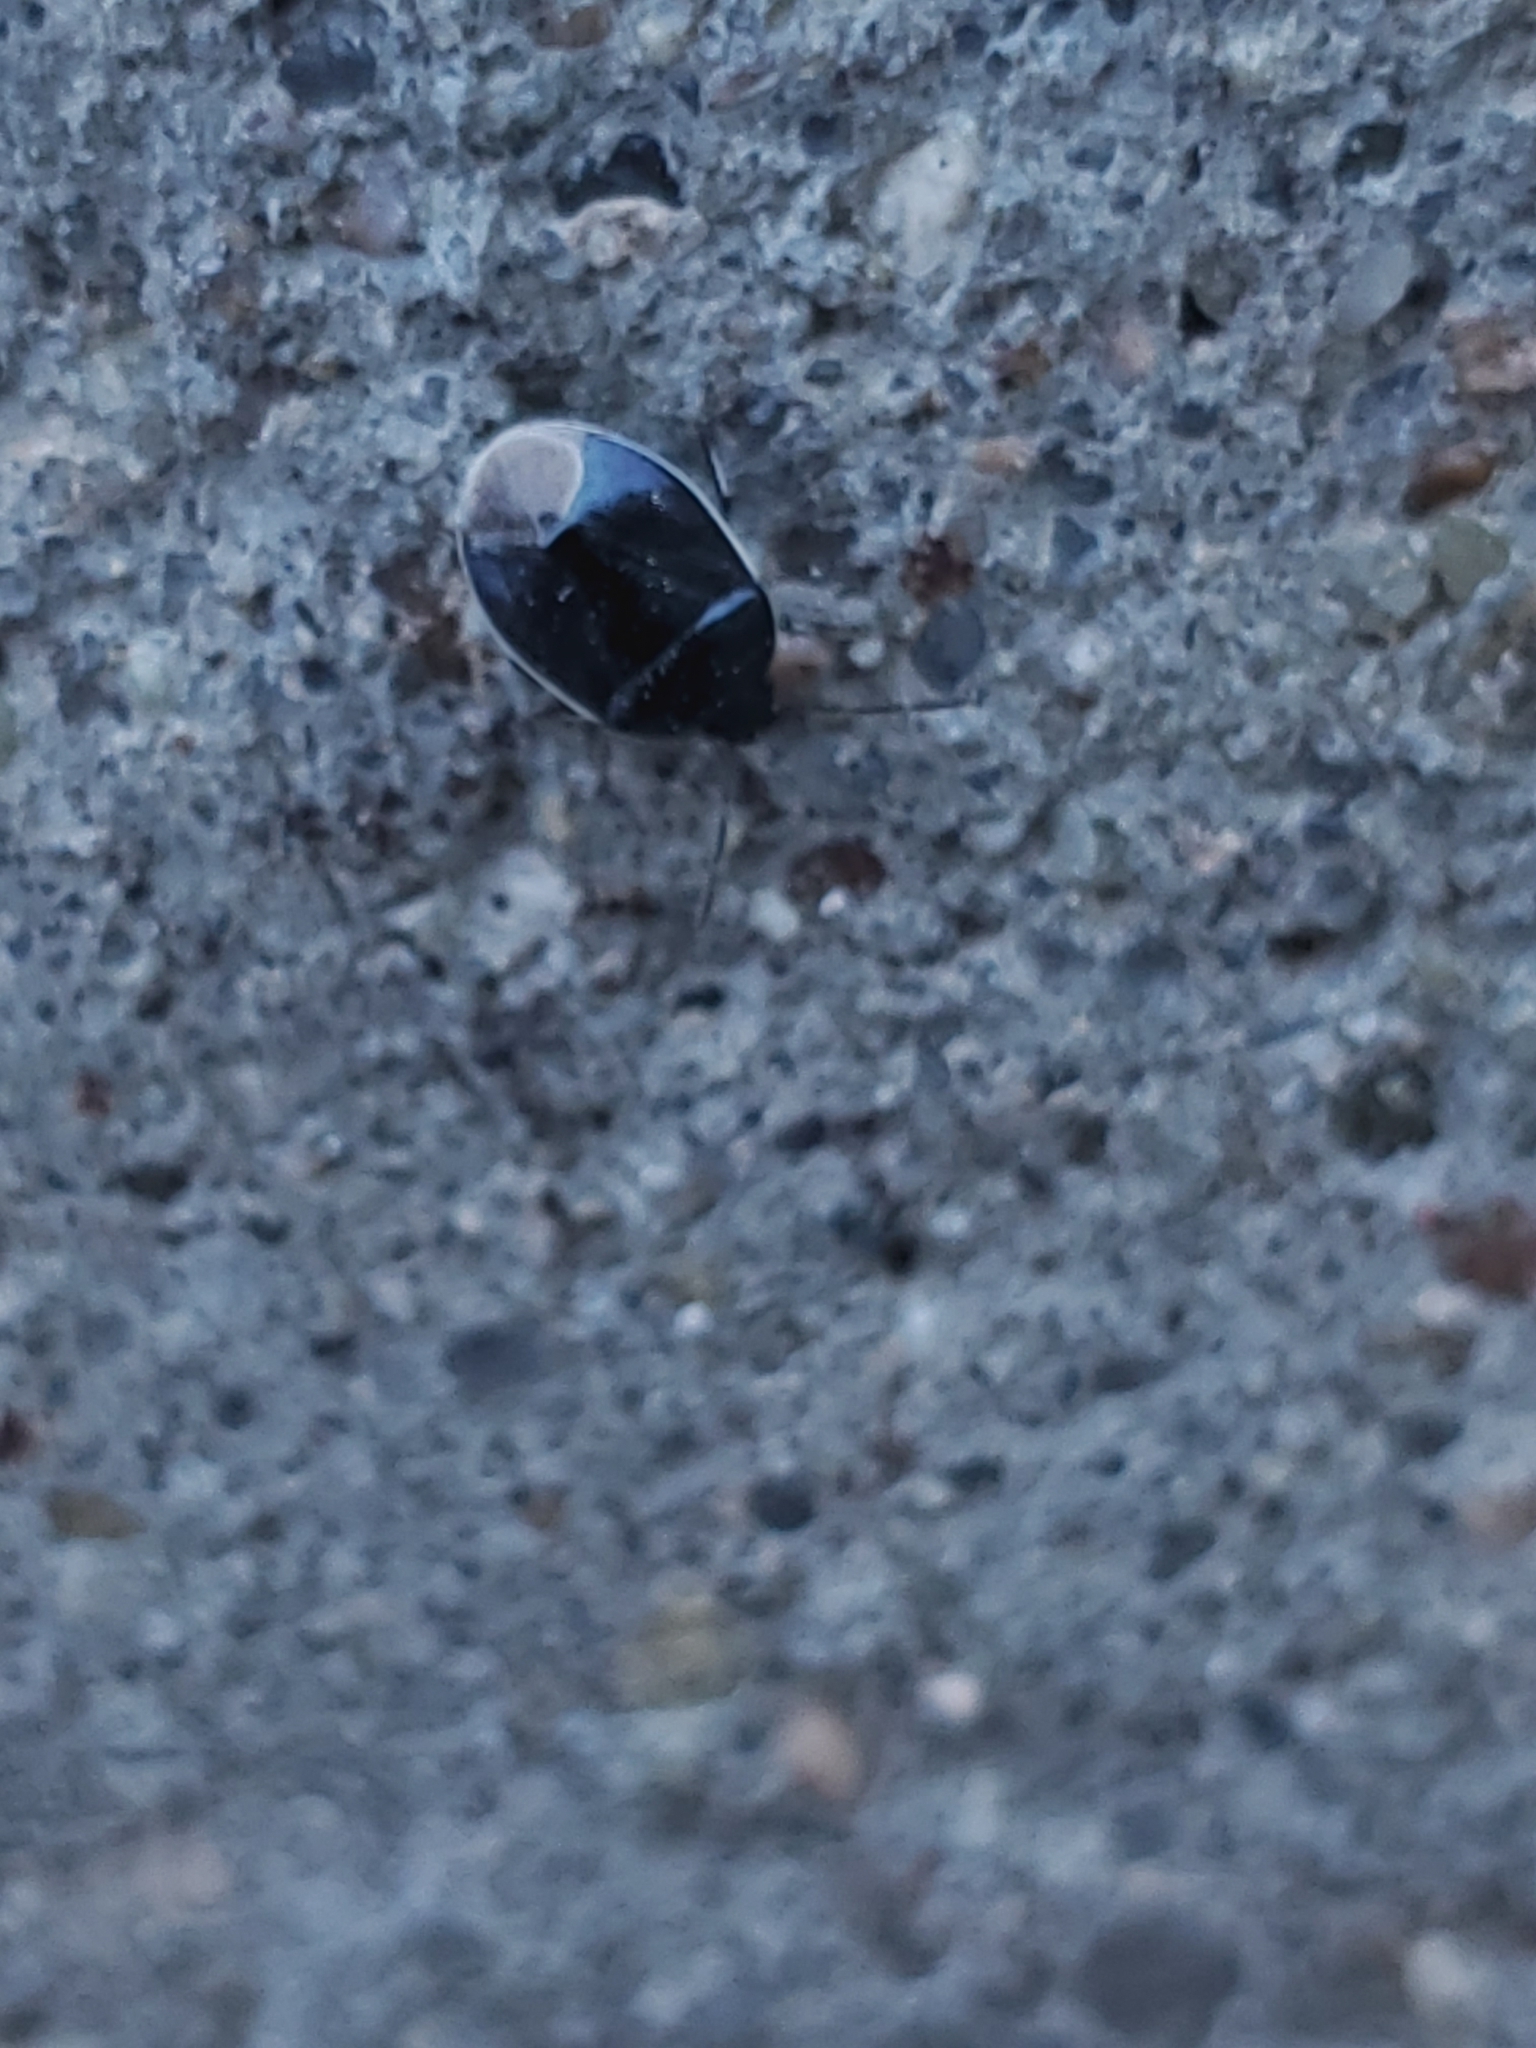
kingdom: Animalia
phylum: Arthropoda
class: Insecta
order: Hemiptera
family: Cydnidae
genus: Sehirus
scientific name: Sehirus cinctus
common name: White-margined burrower bug
